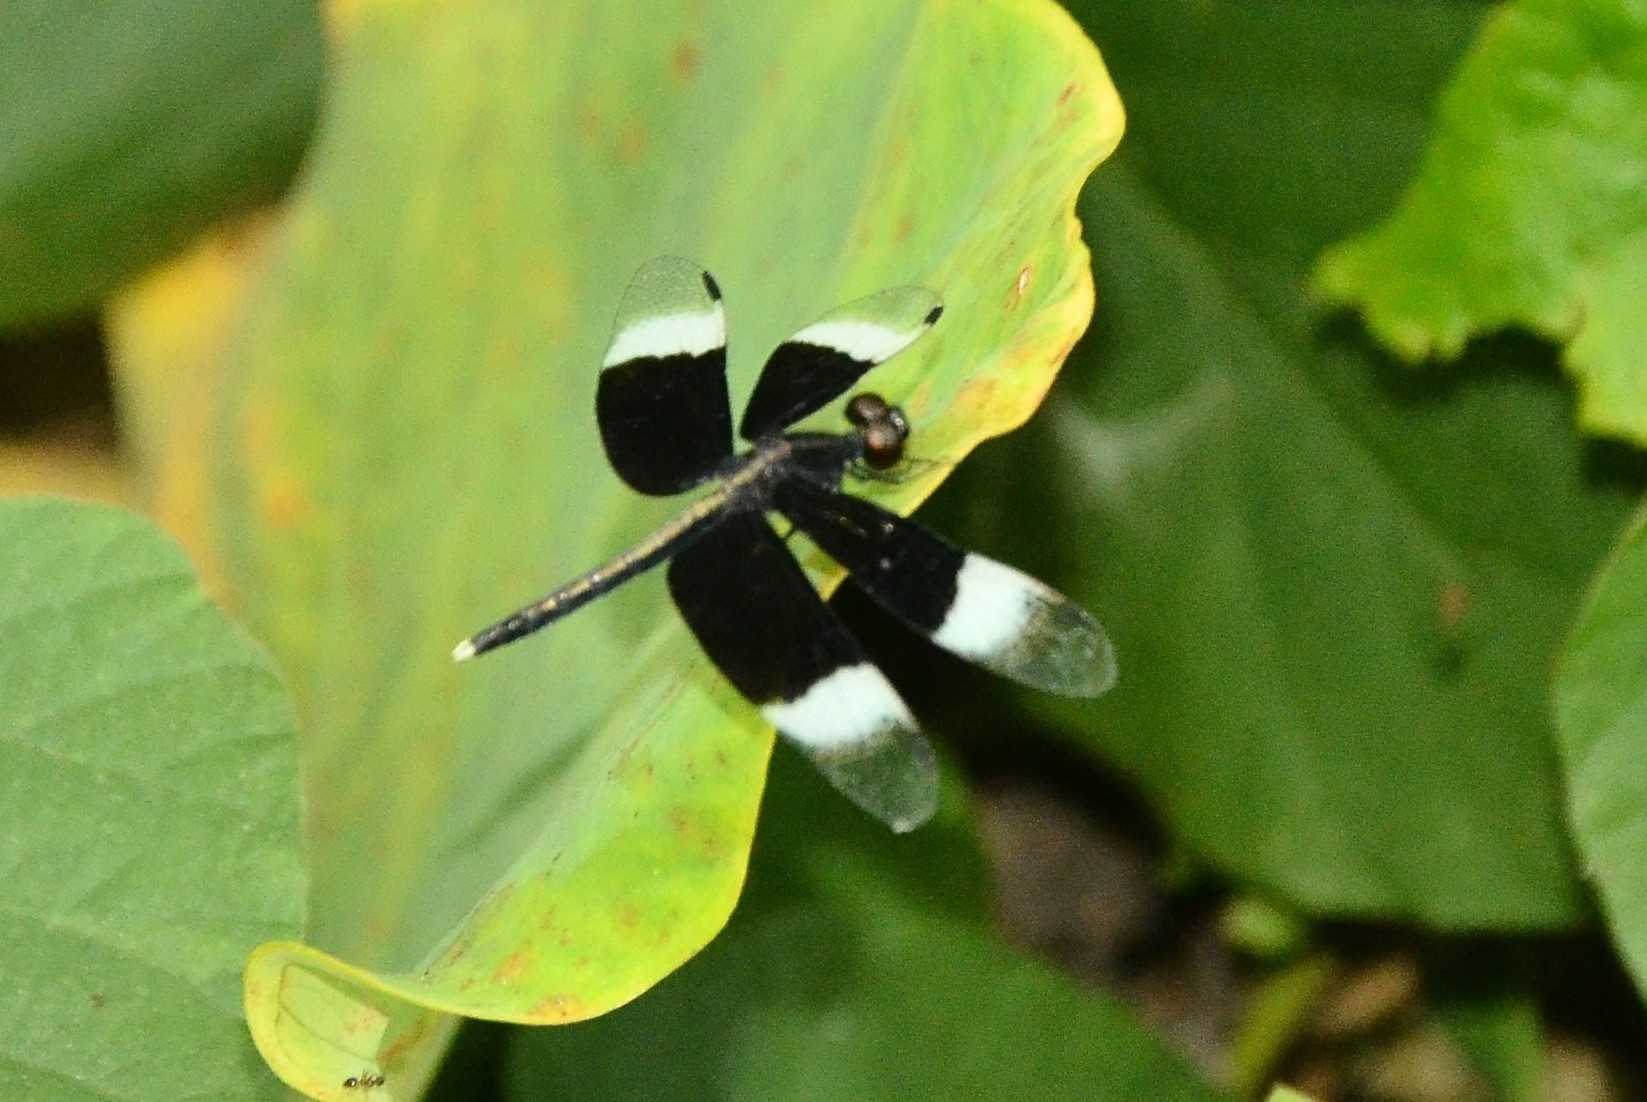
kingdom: Animalia
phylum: Arthropoda
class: Insecta
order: Odonata
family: Libellulidae
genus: Neurothemis
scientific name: Neurothemis tullia
